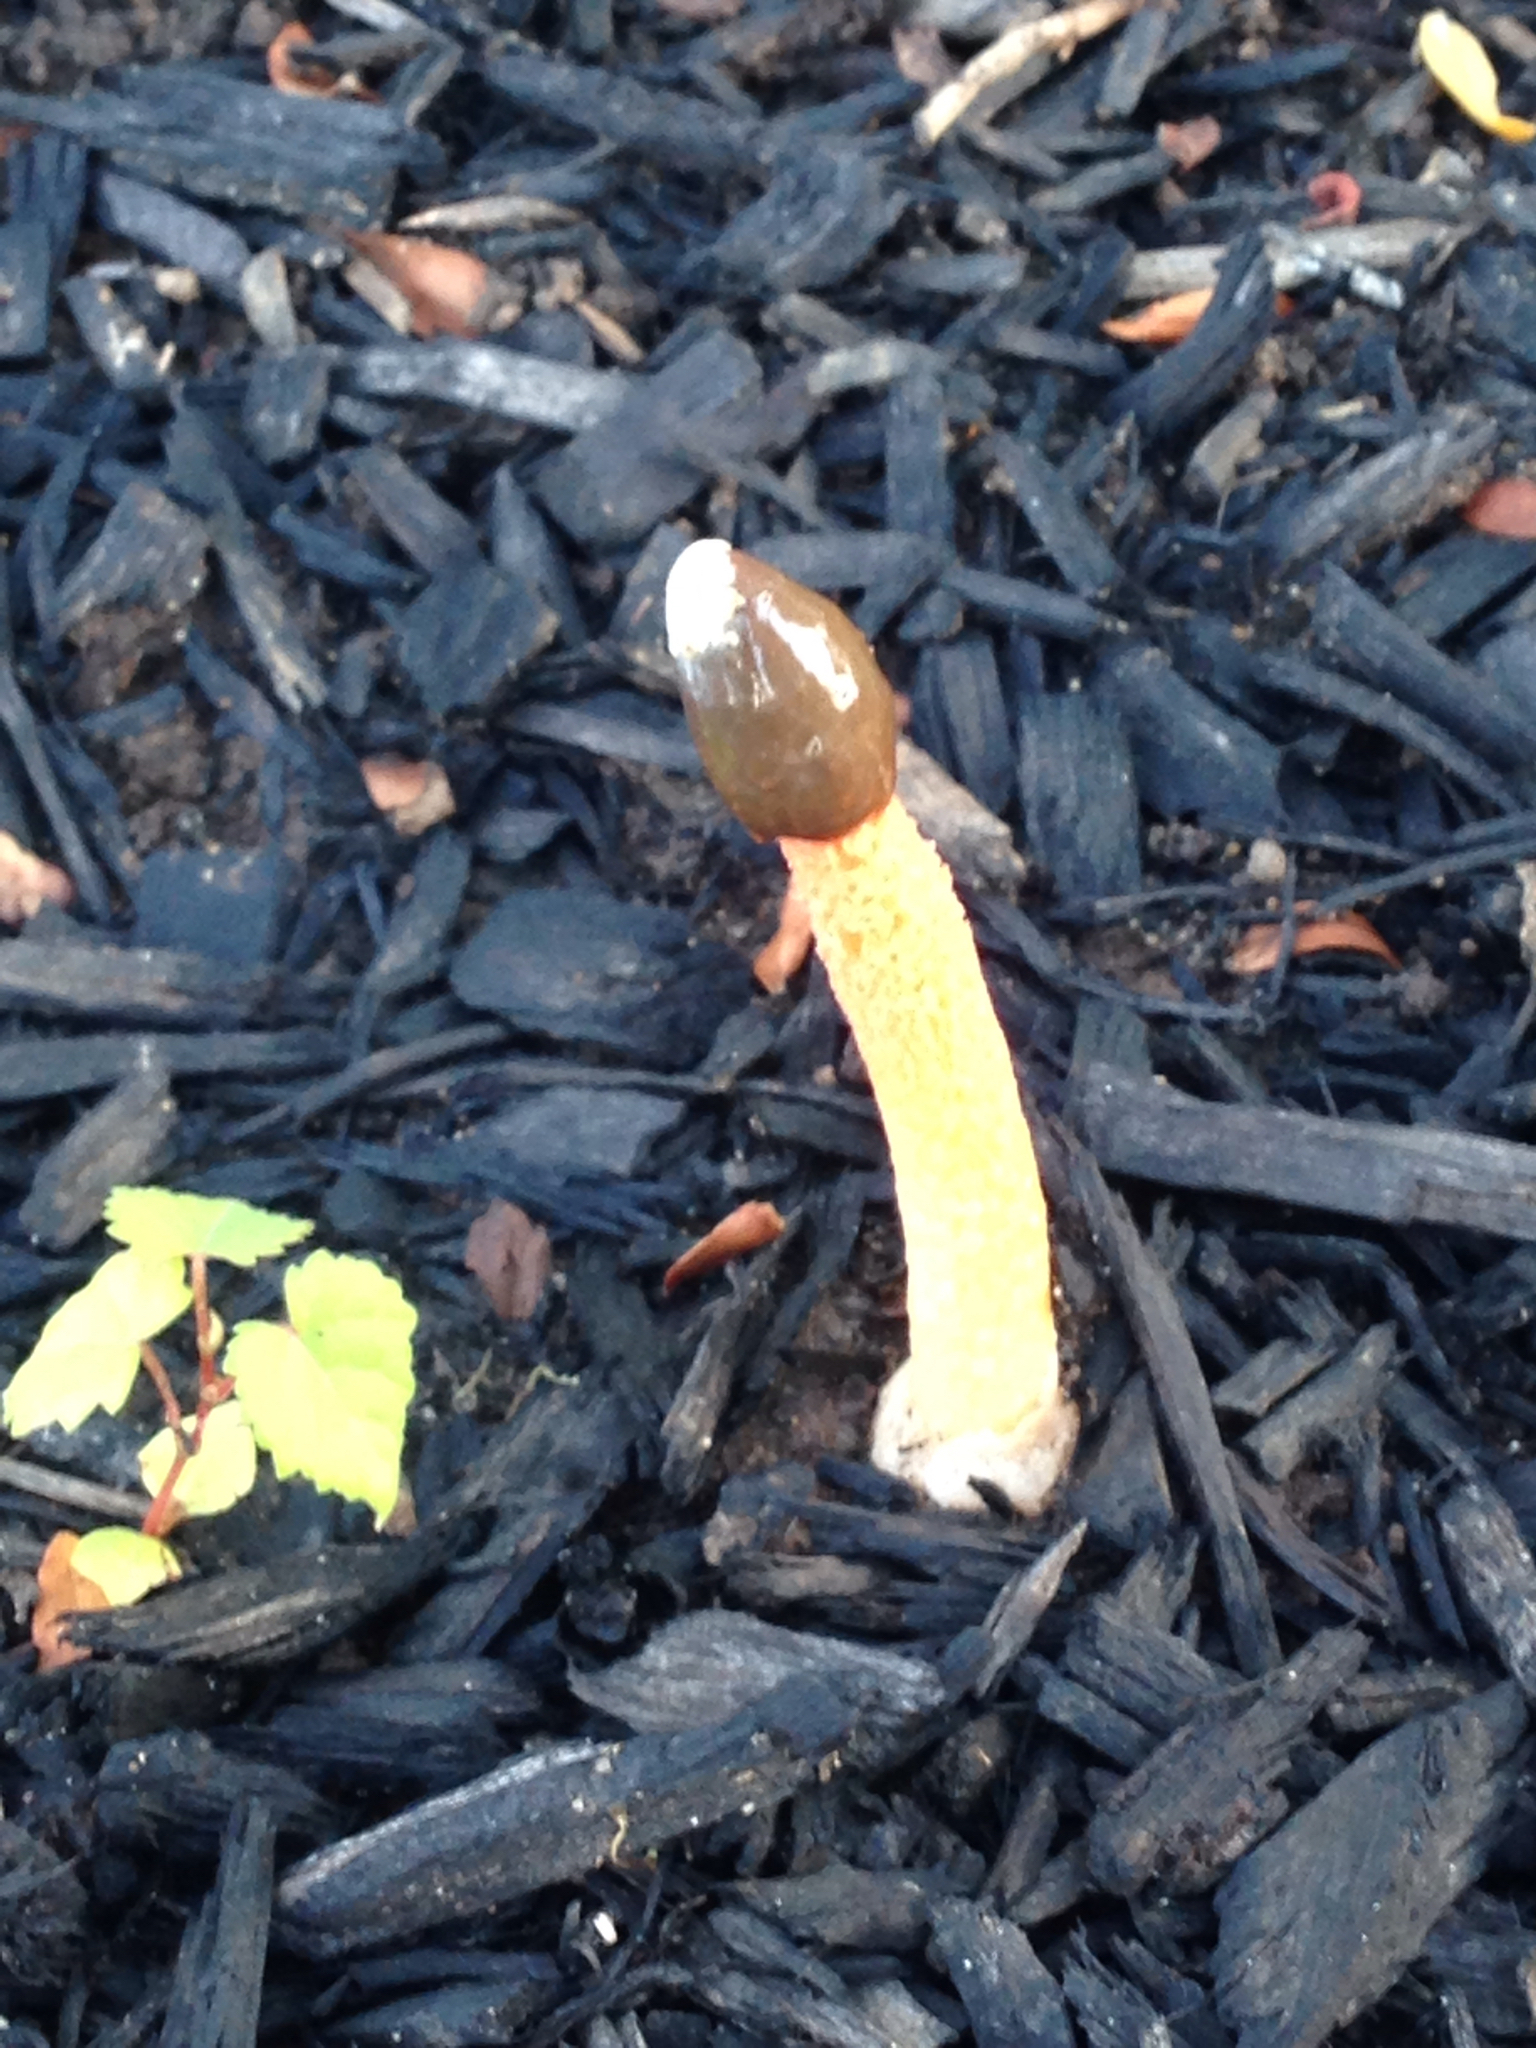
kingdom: Fungi
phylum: Basidiomycota
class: Agaricomycetes
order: Phallales
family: Phallaceae
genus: Phallus
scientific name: Phallus rugulosus
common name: Wrinkly stinkhorn
